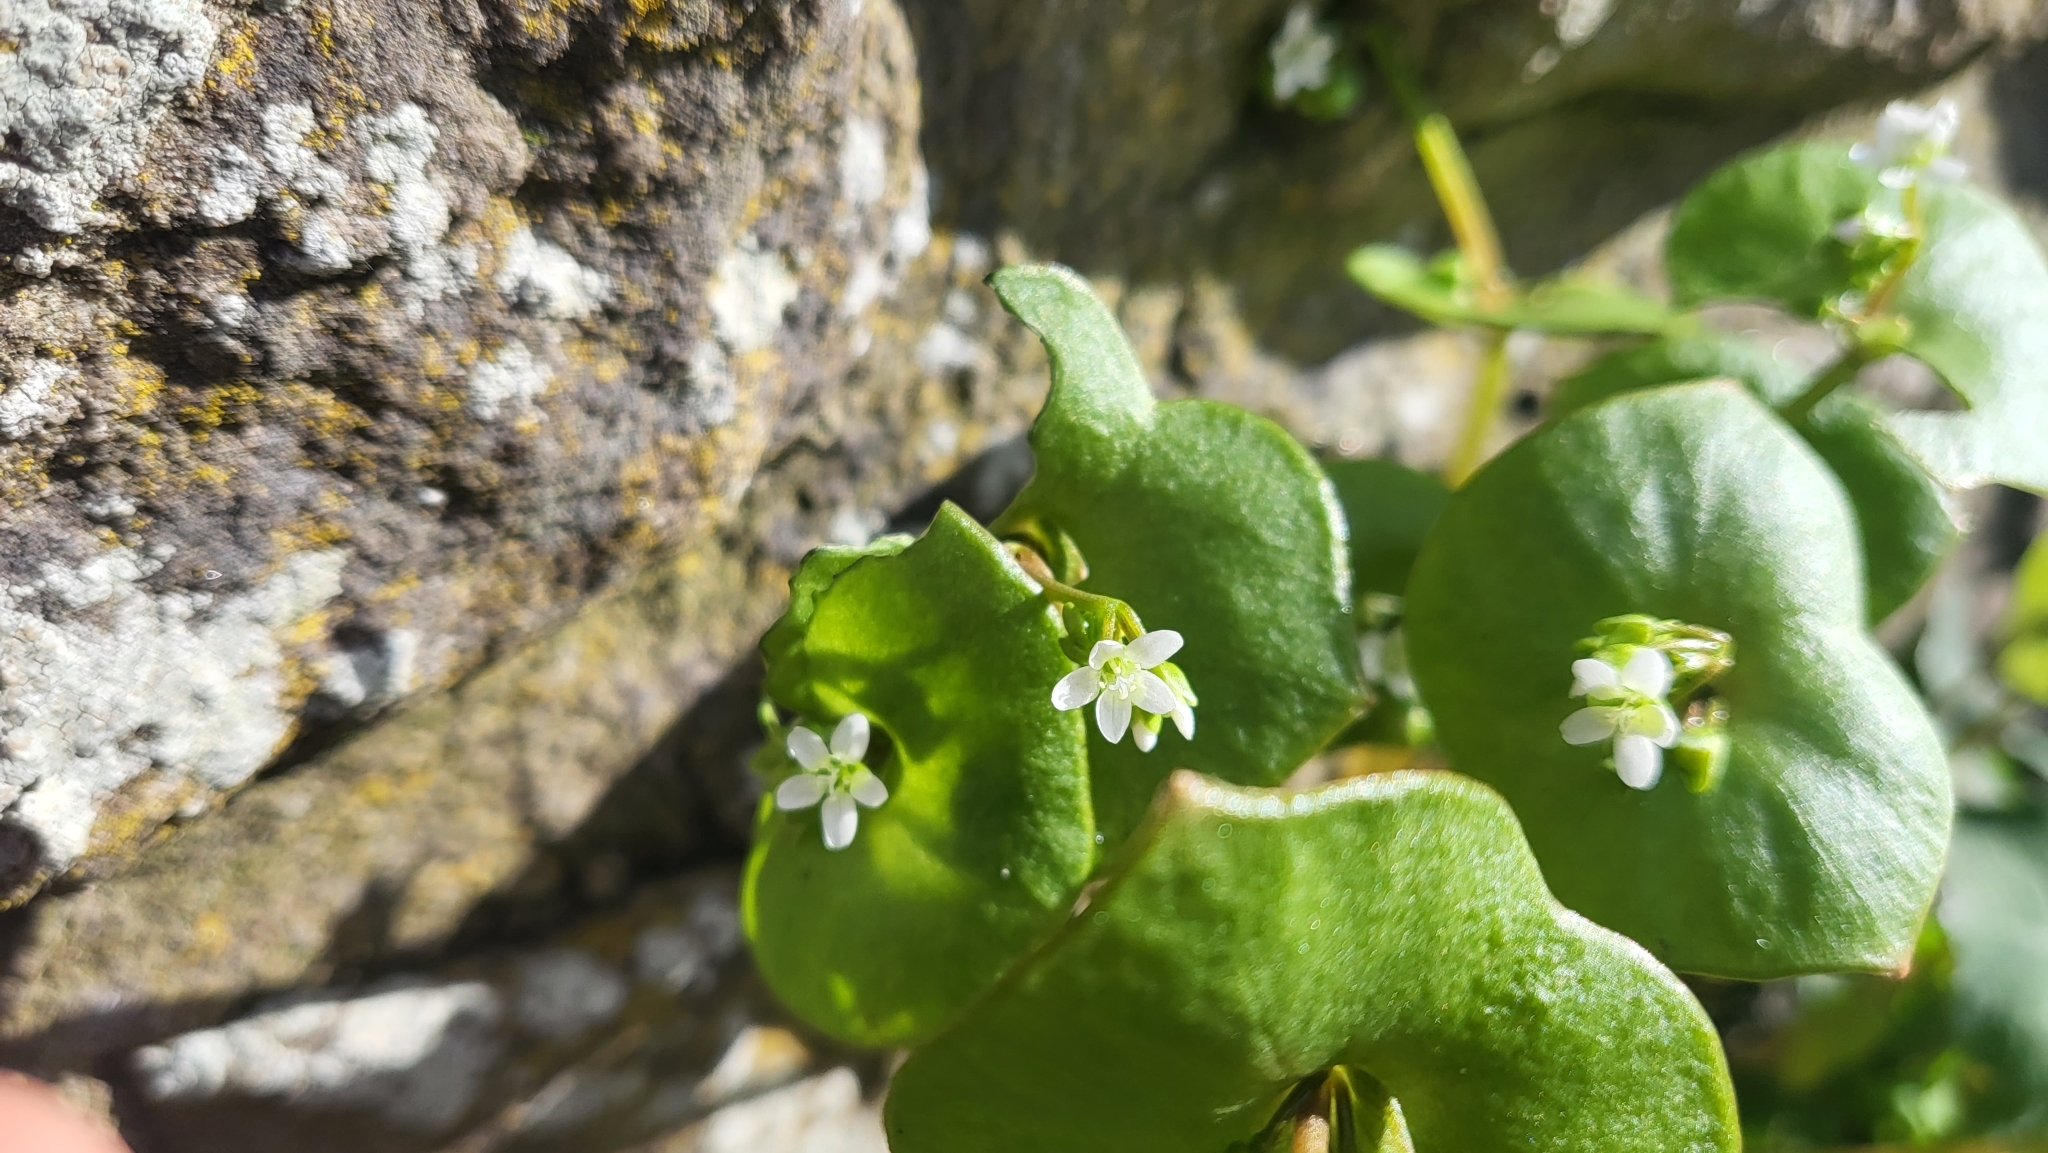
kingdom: Plantae
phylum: Tracheophyta
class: Magnoliopsida
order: Caryophyllales
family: Montiaceae
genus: Claytonia
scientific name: Claytonia perfoliata
